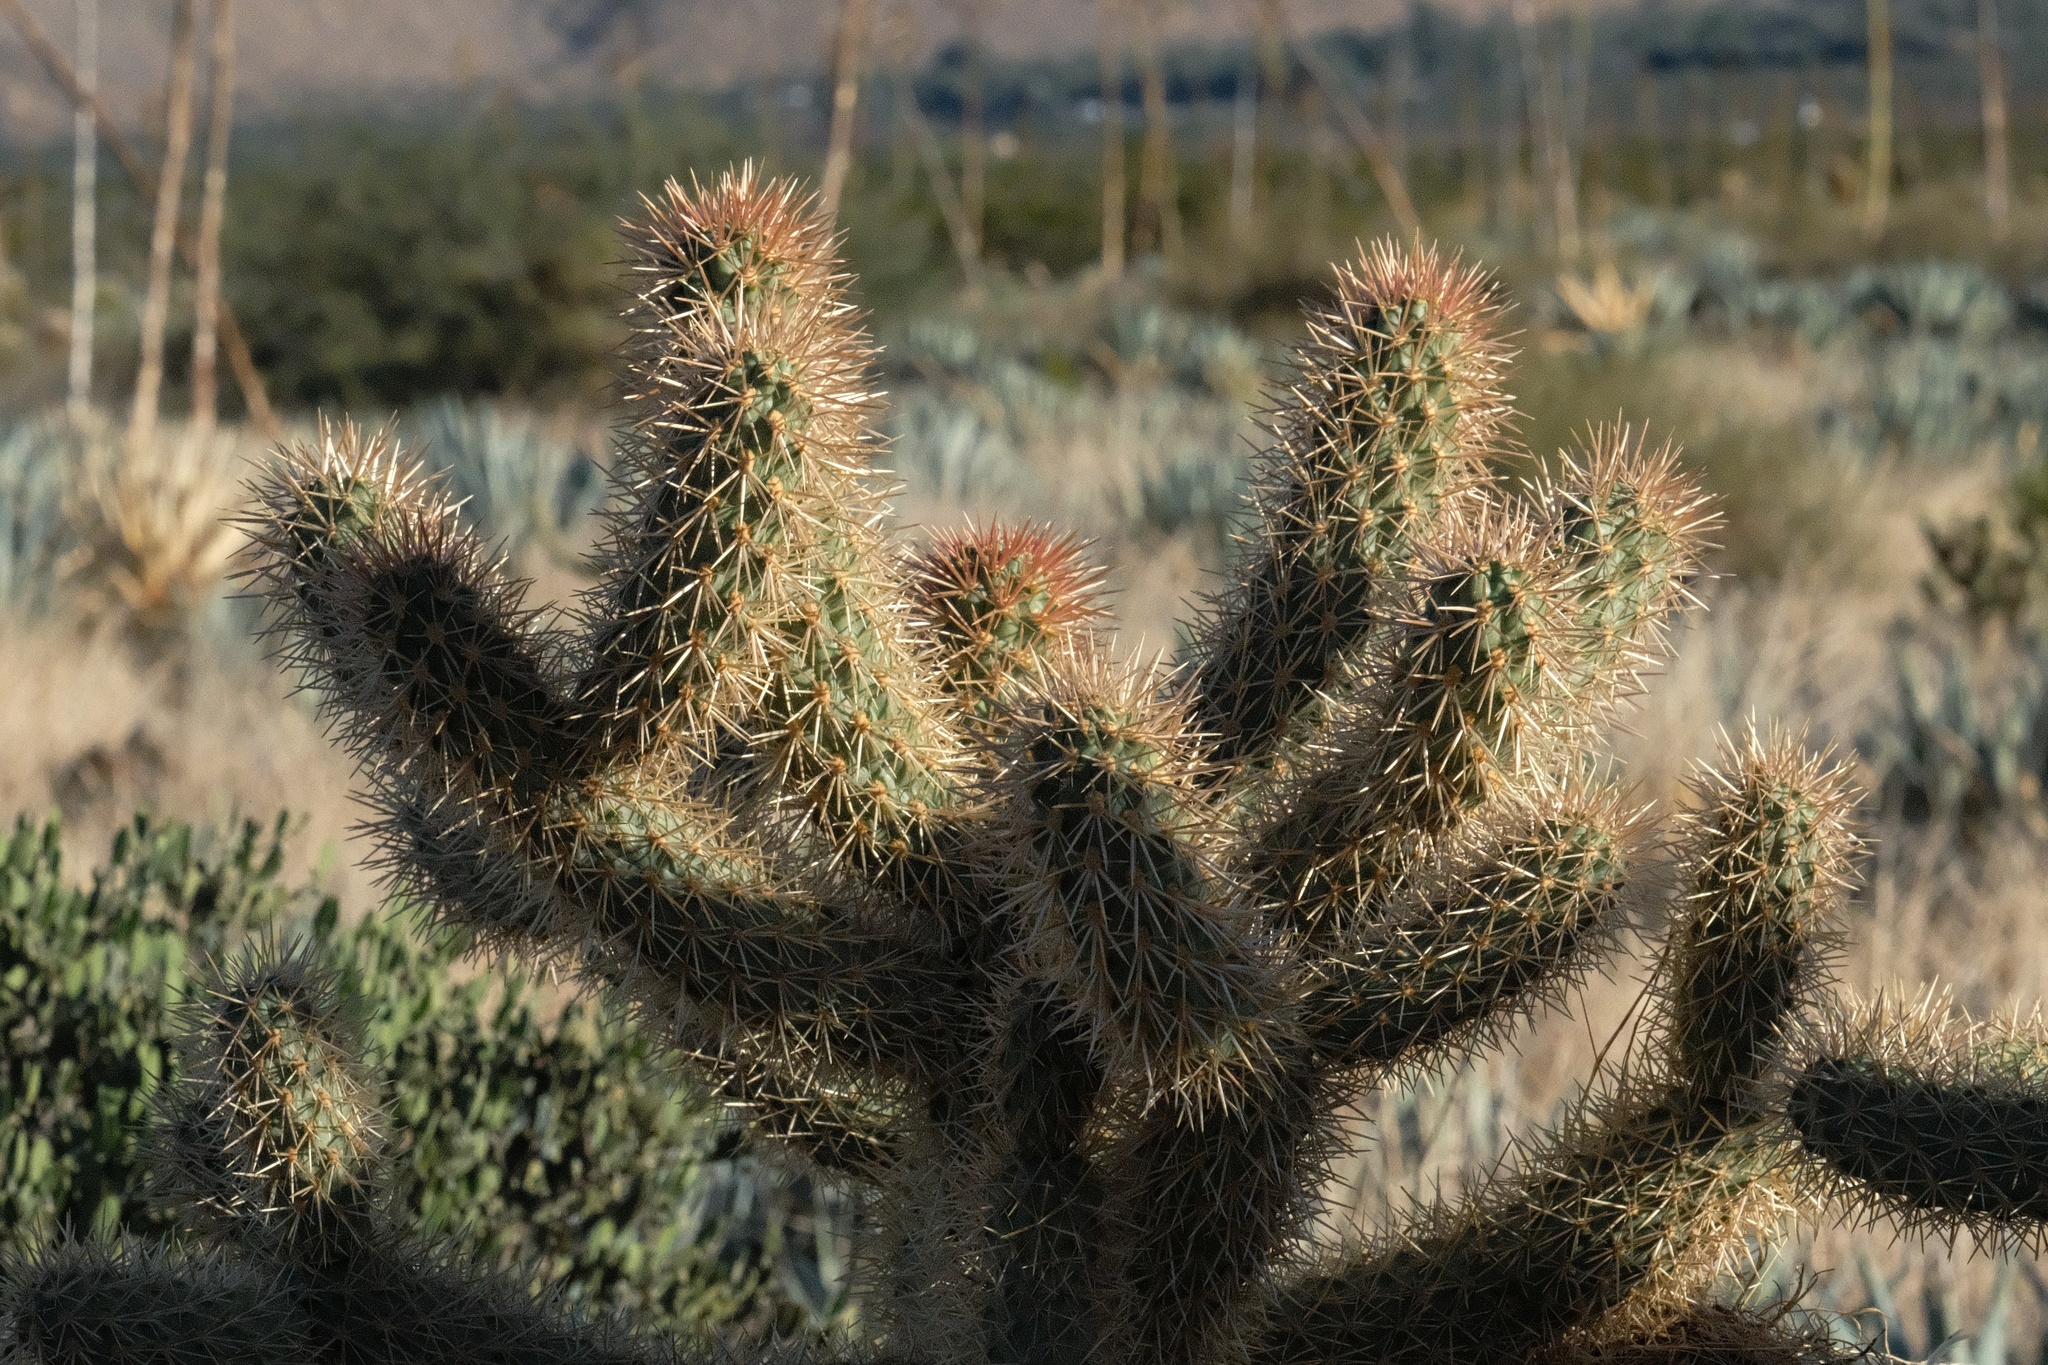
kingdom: Plantae
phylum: Tracheophyta
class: Magnoliopsida
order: Caryophyllales
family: Cactaceae
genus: Cylindropuntia
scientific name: Cylindropuntia fosbergii
